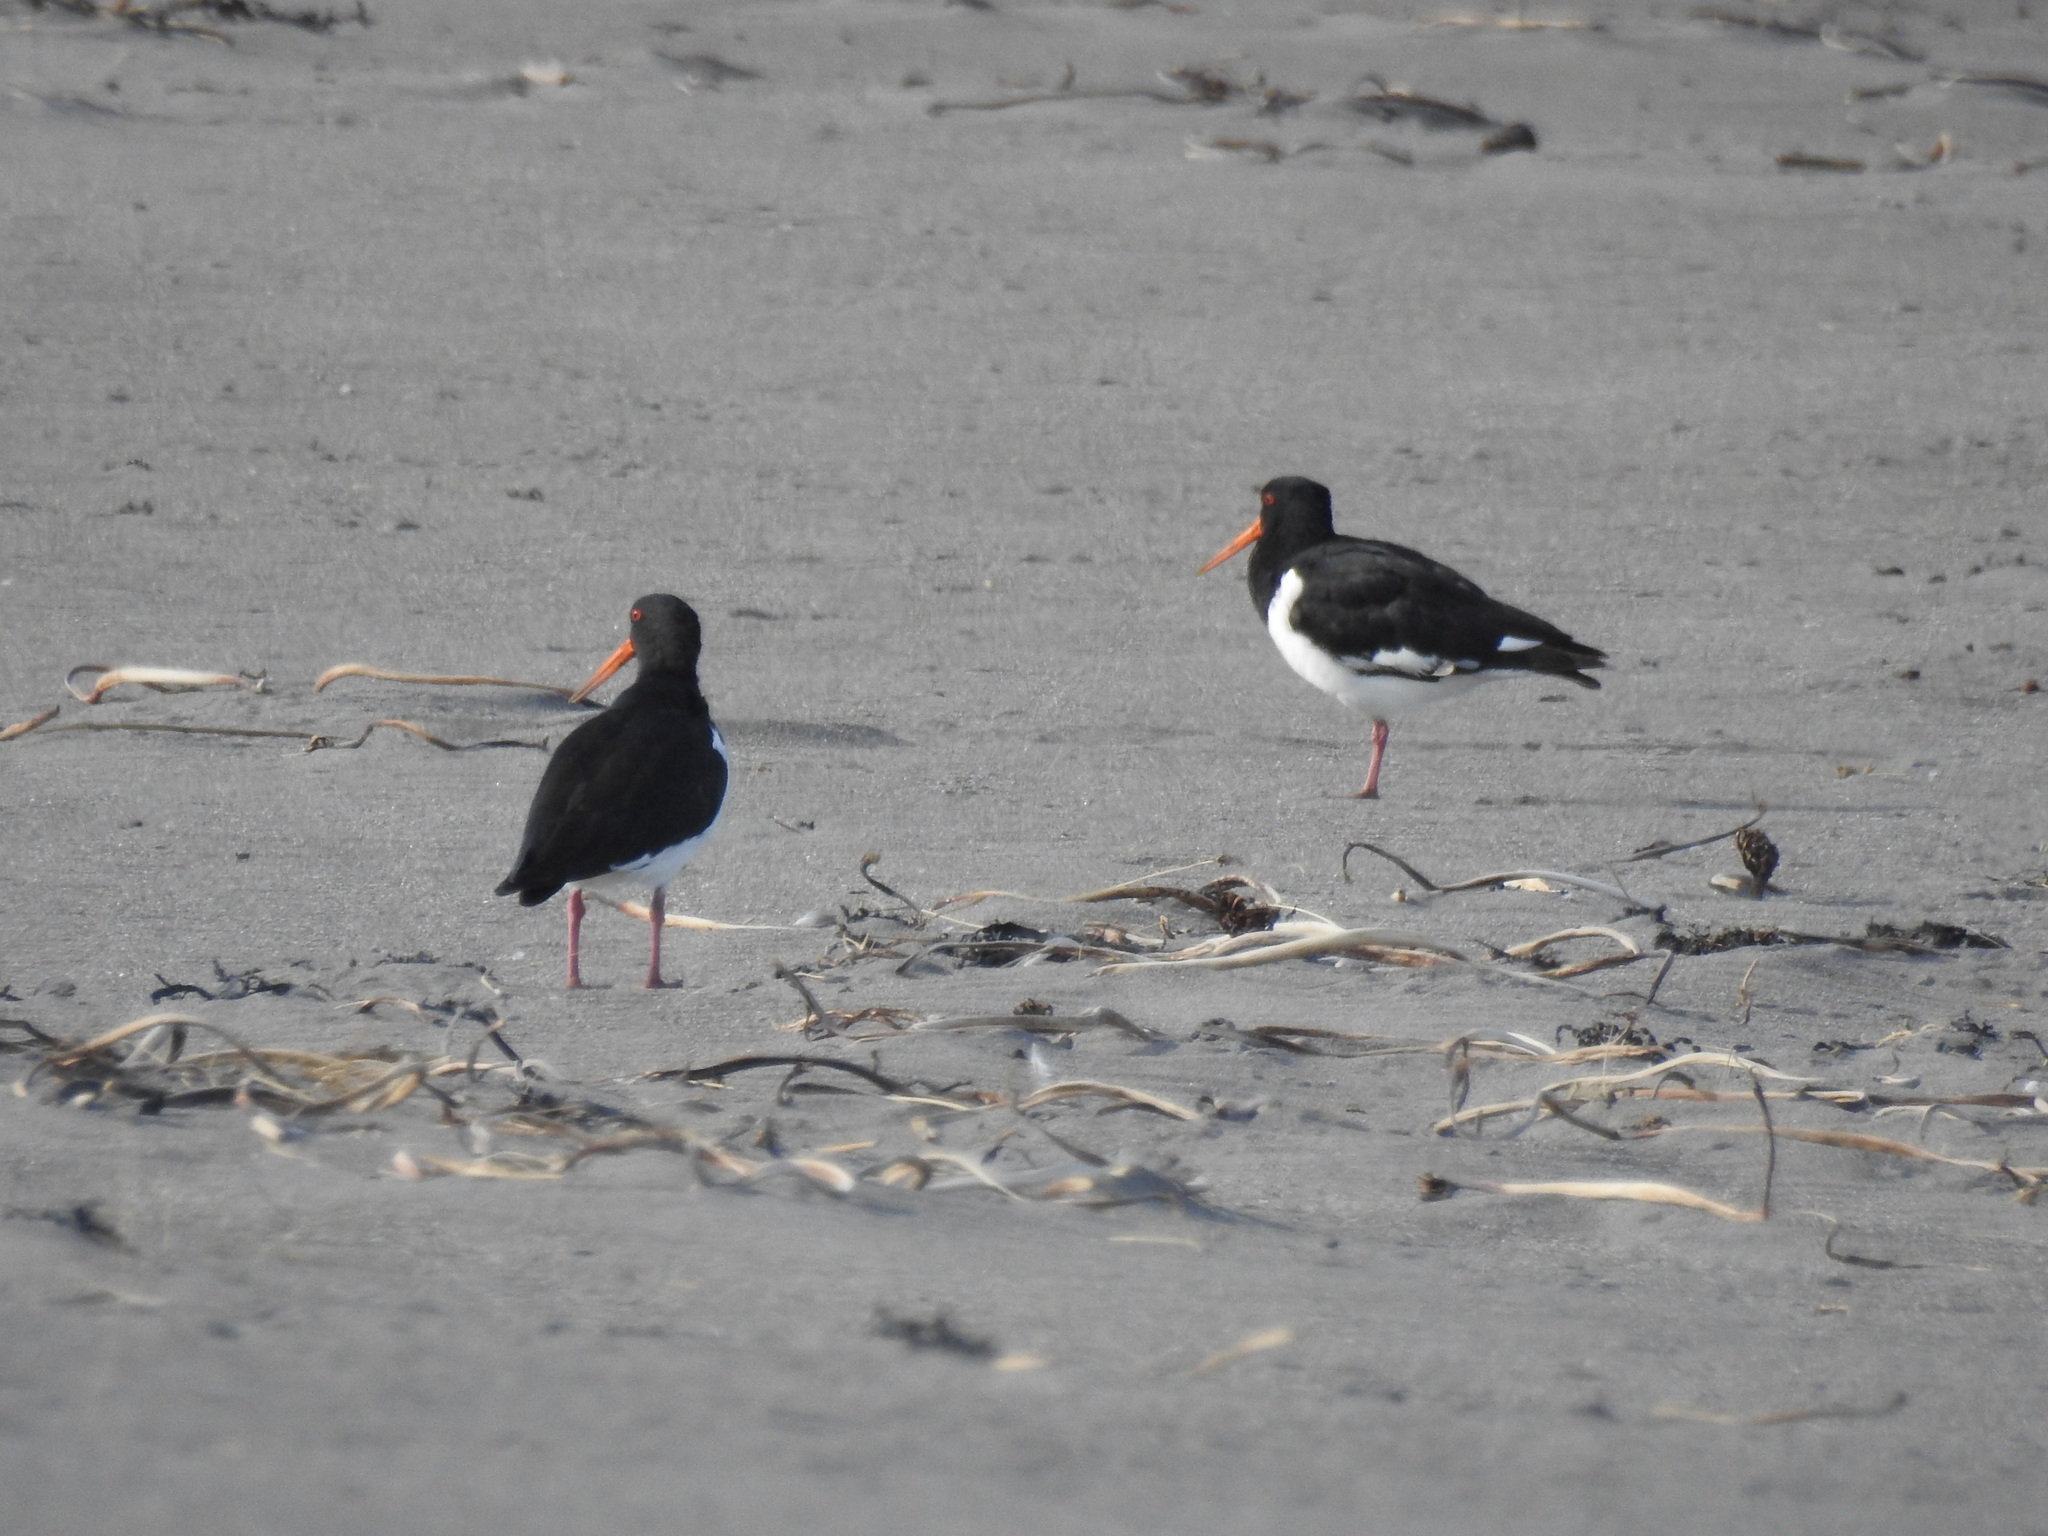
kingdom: Animalia
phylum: Chordata
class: Aves
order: Charadriiformes
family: Haematopodidae
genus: Haematopus
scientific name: Haematopus finschi
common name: South island oystercatcher
